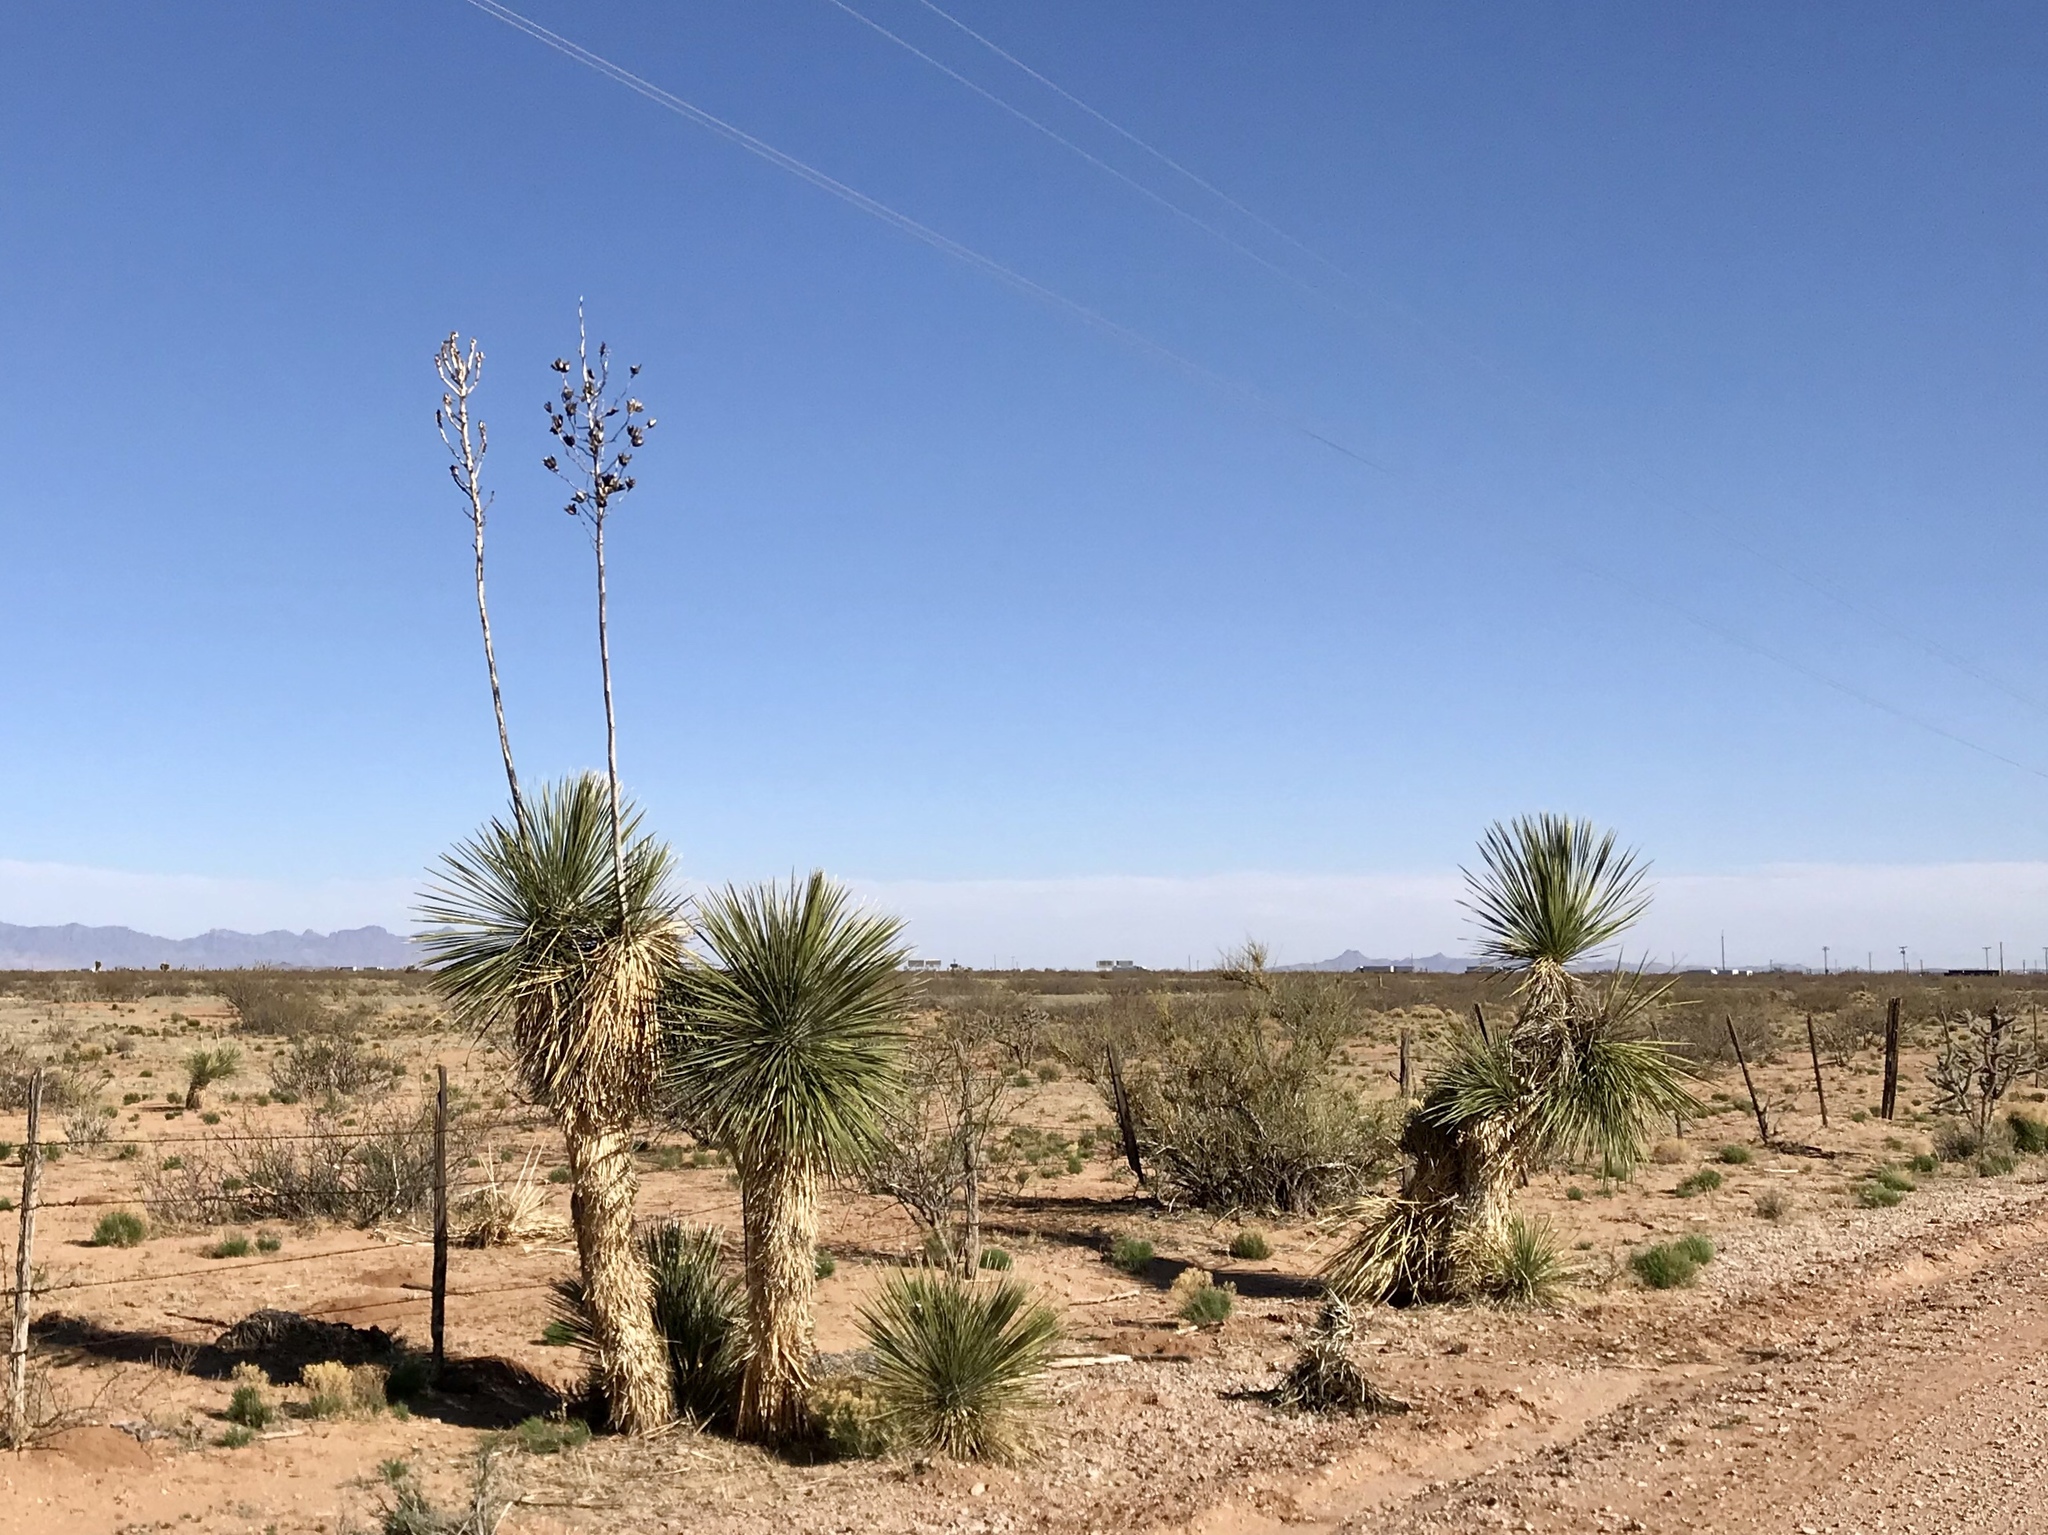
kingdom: Plantae
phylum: Tracheophyta
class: Liliopsida
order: Asparagales
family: Asparagaceae
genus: Yucca
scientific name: Yucca elata
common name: Palmella
